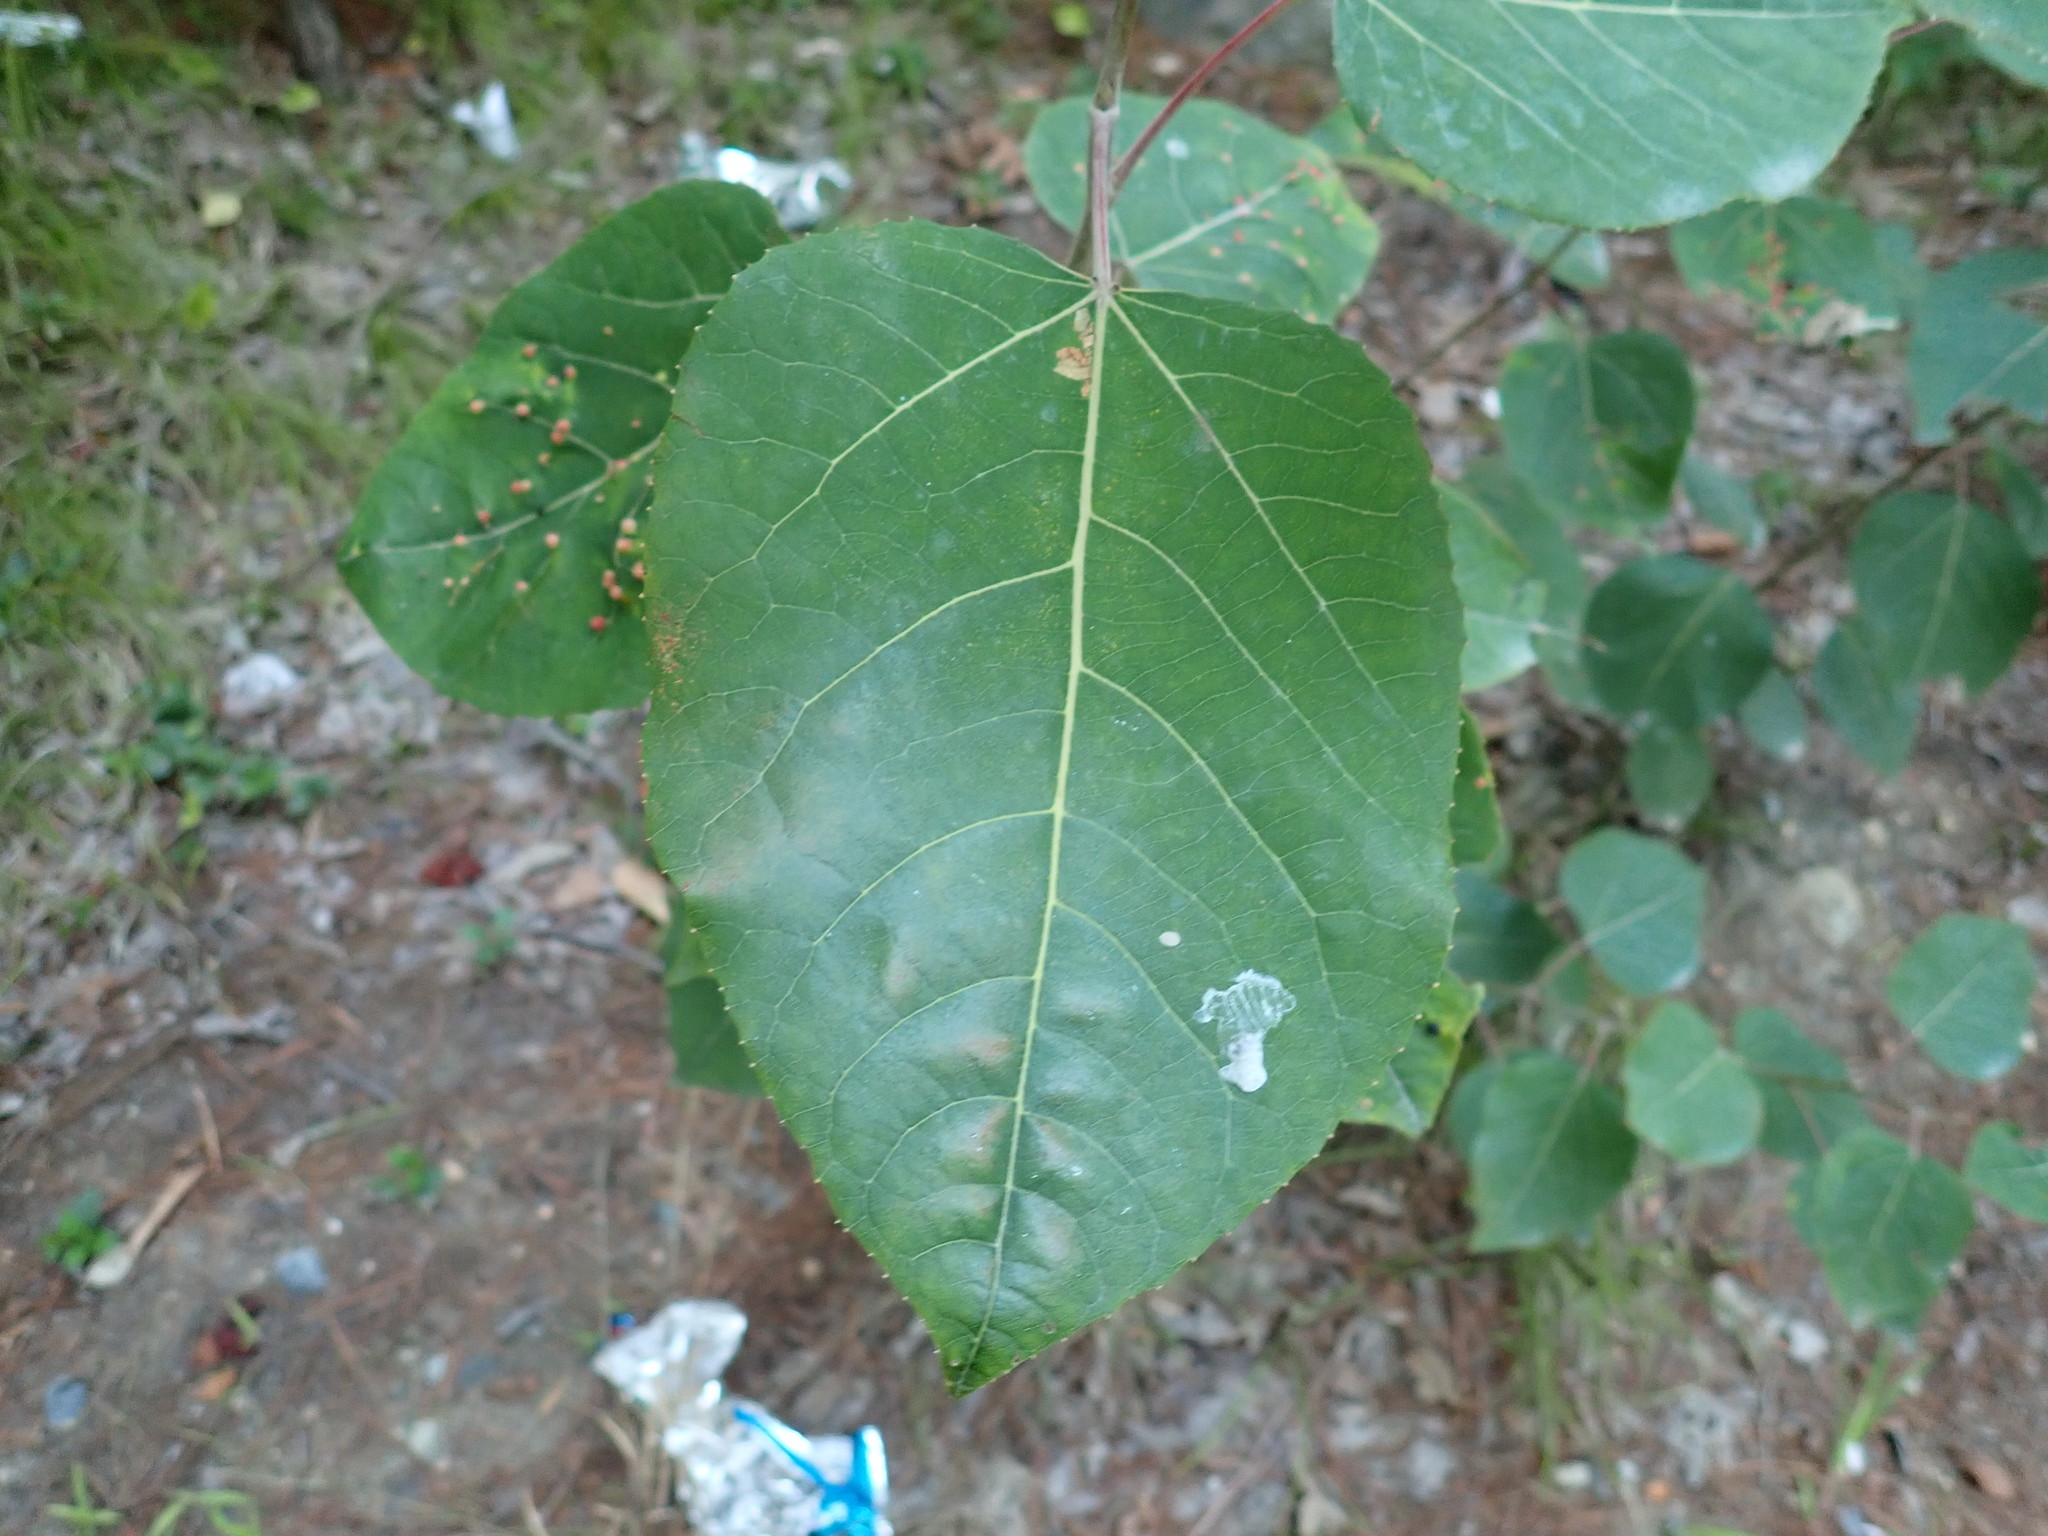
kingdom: Plantae
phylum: Tracheophyta
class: Magnoliopsida
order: Malpighiales
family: Salicaceae
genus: Populus
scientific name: Populus tremuloides
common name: Quaking aspen
